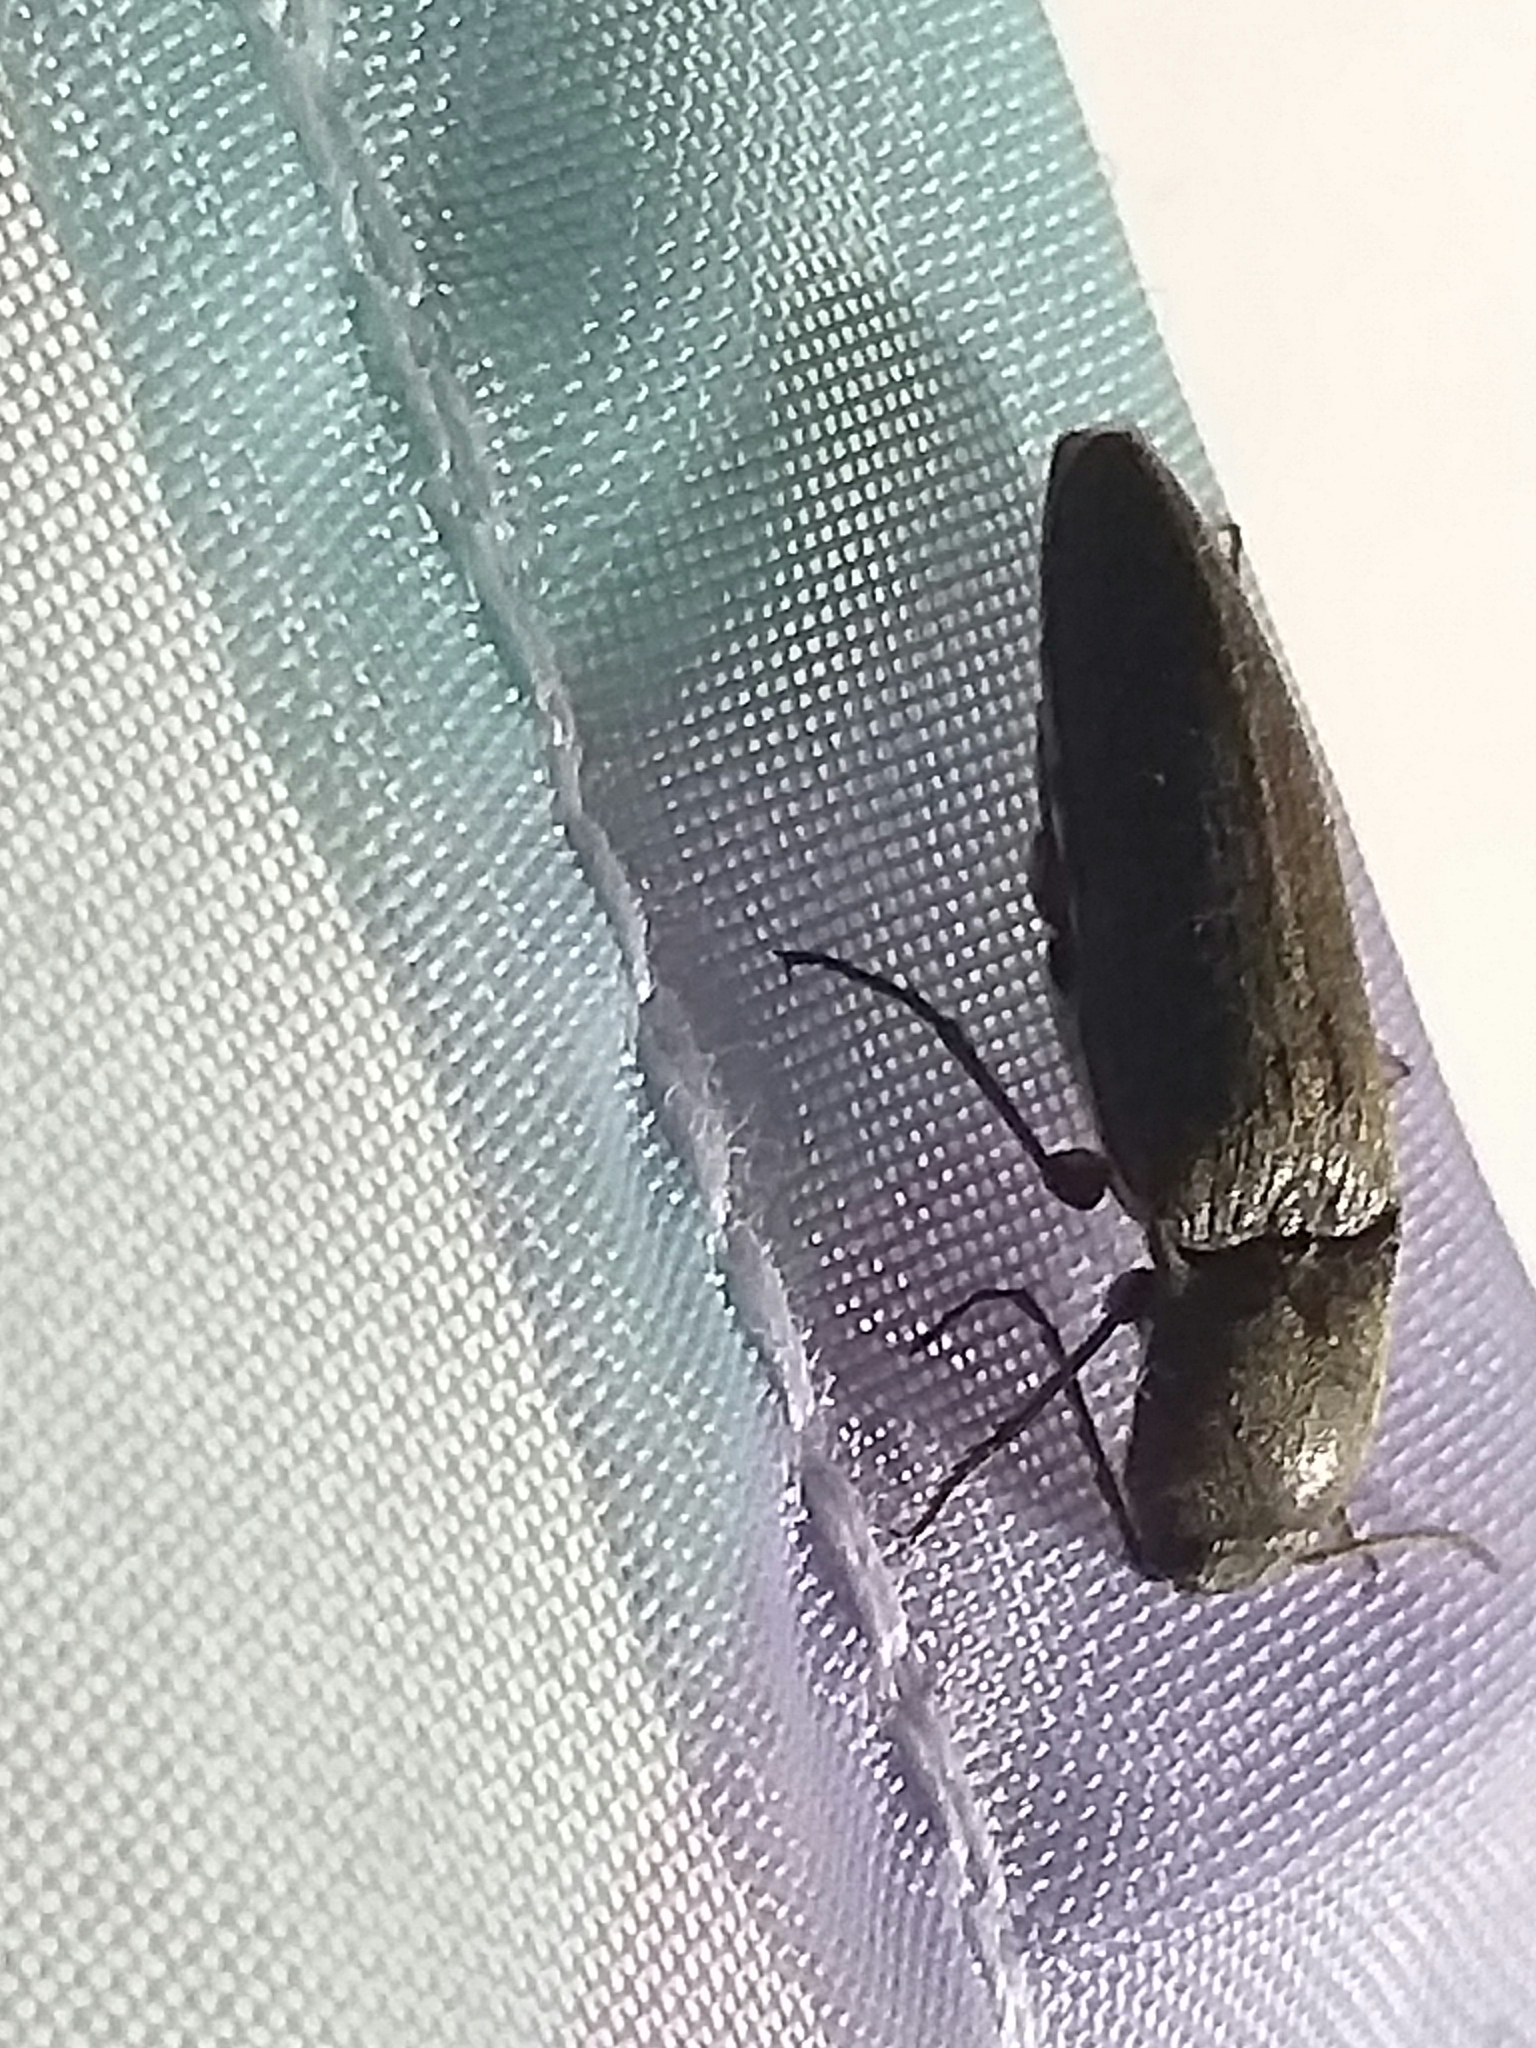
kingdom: Animalia
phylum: Arthropoda
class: Insecta
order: Coleoptera
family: Elateridae
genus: Athous
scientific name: Athous haemorrhoidalis
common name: Red-brown click beetle
